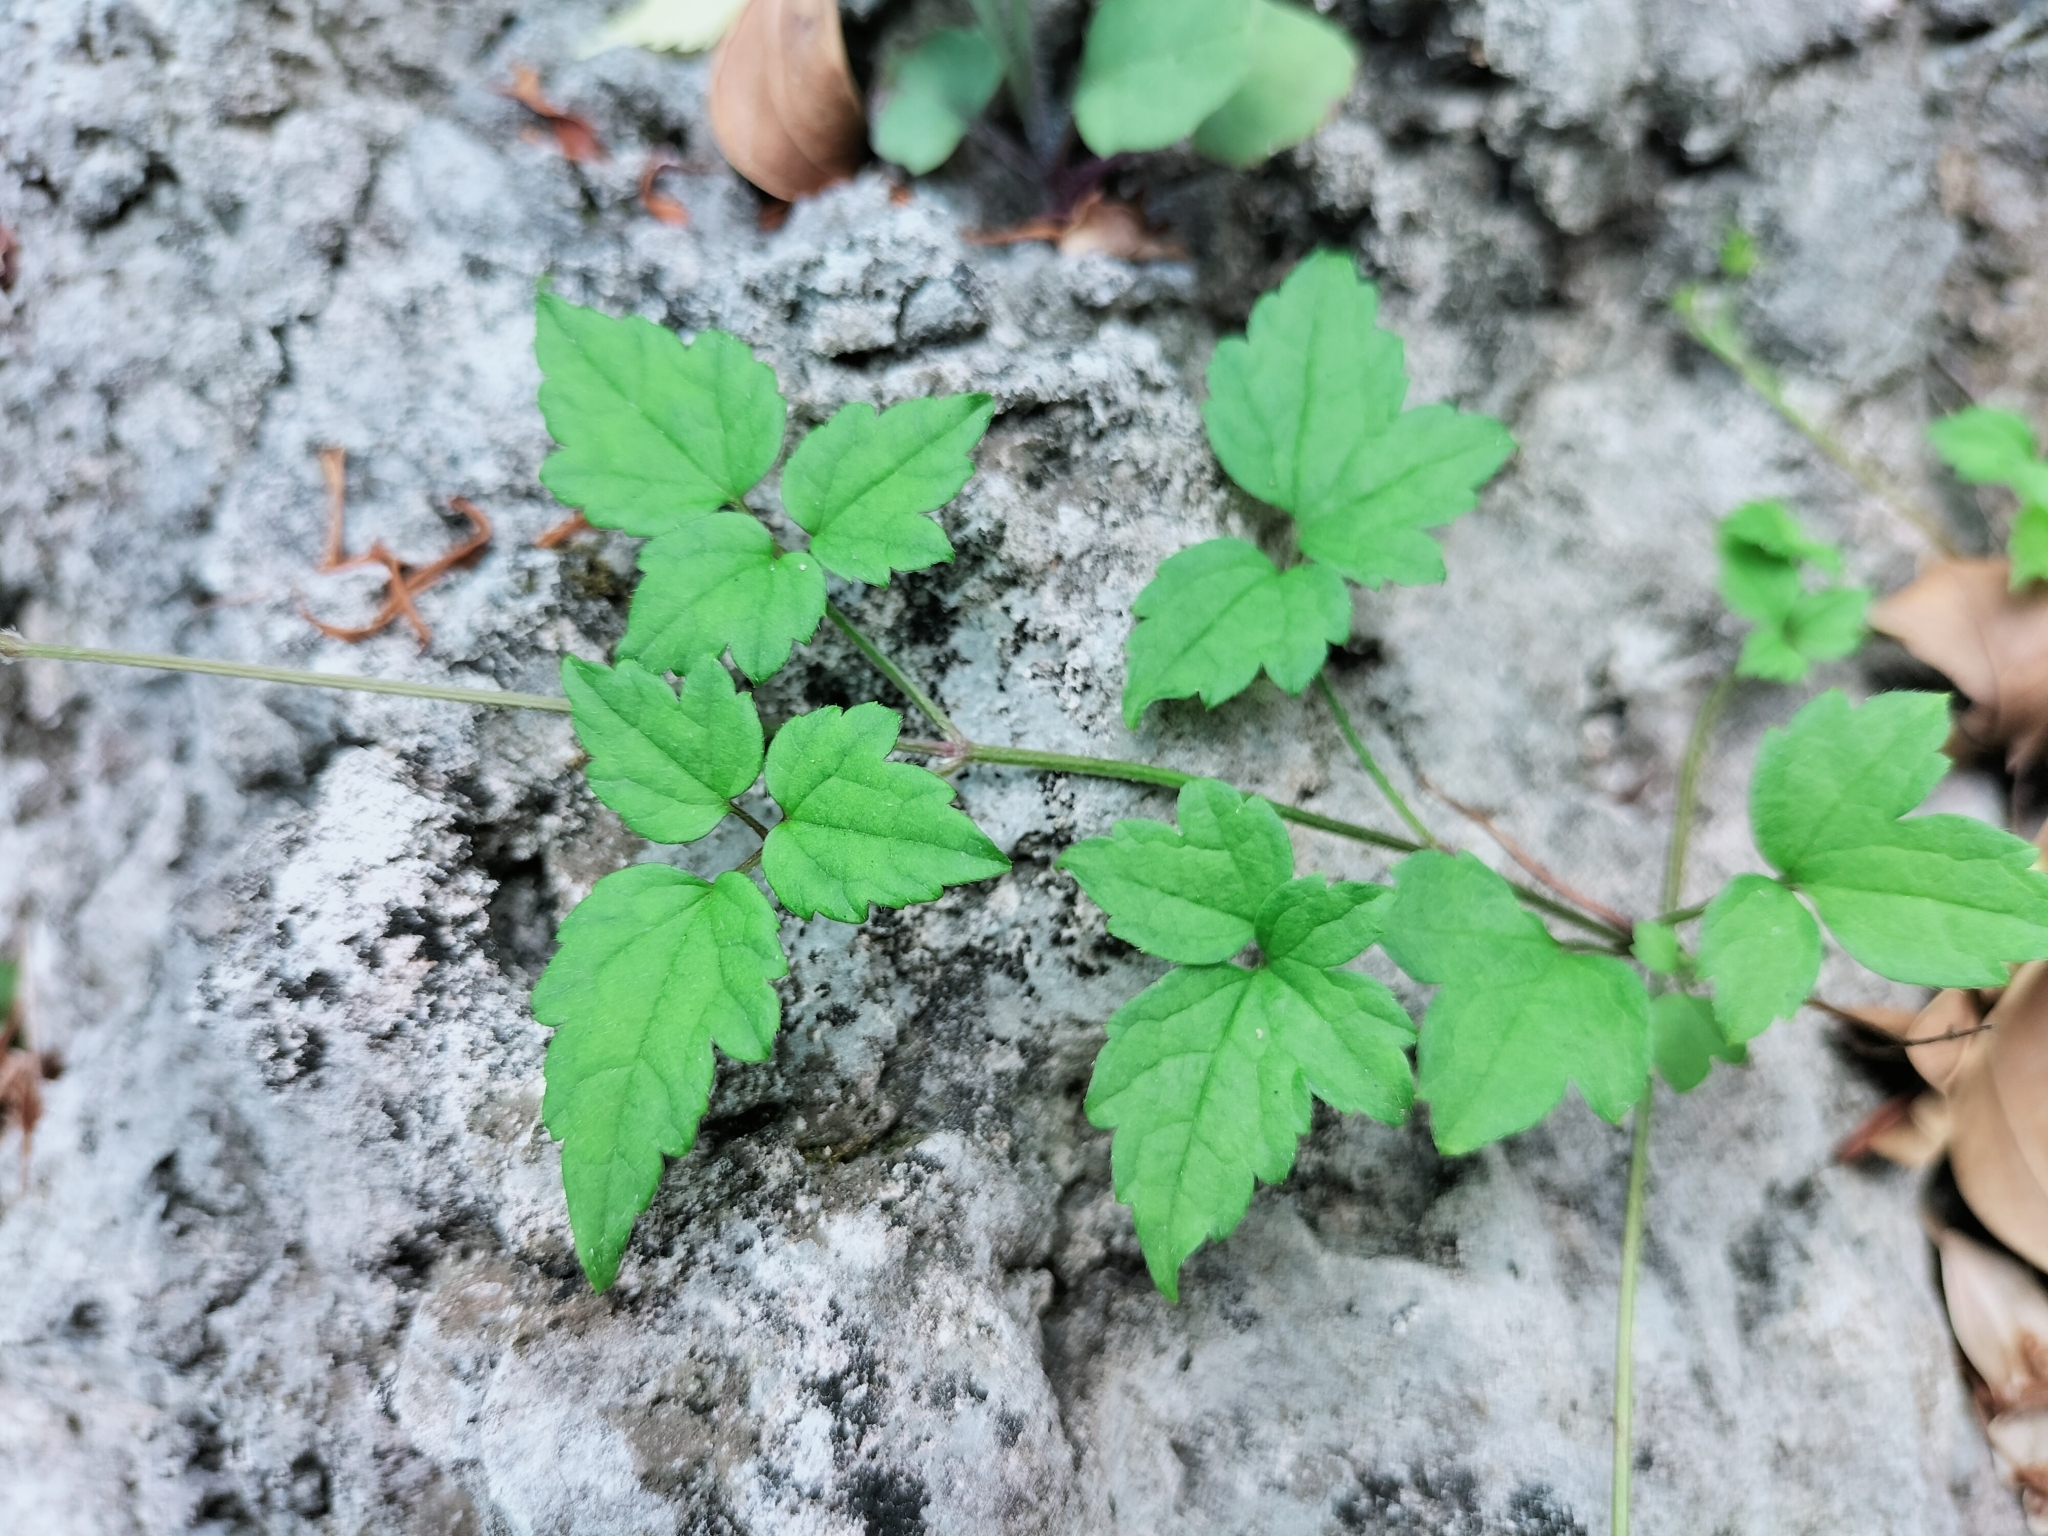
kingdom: Plantae
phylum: Tracheophyta
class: Magnoliopsida
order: Ranunculales
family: Ranunculaceae
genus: Clematis
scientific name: Clematis grata
